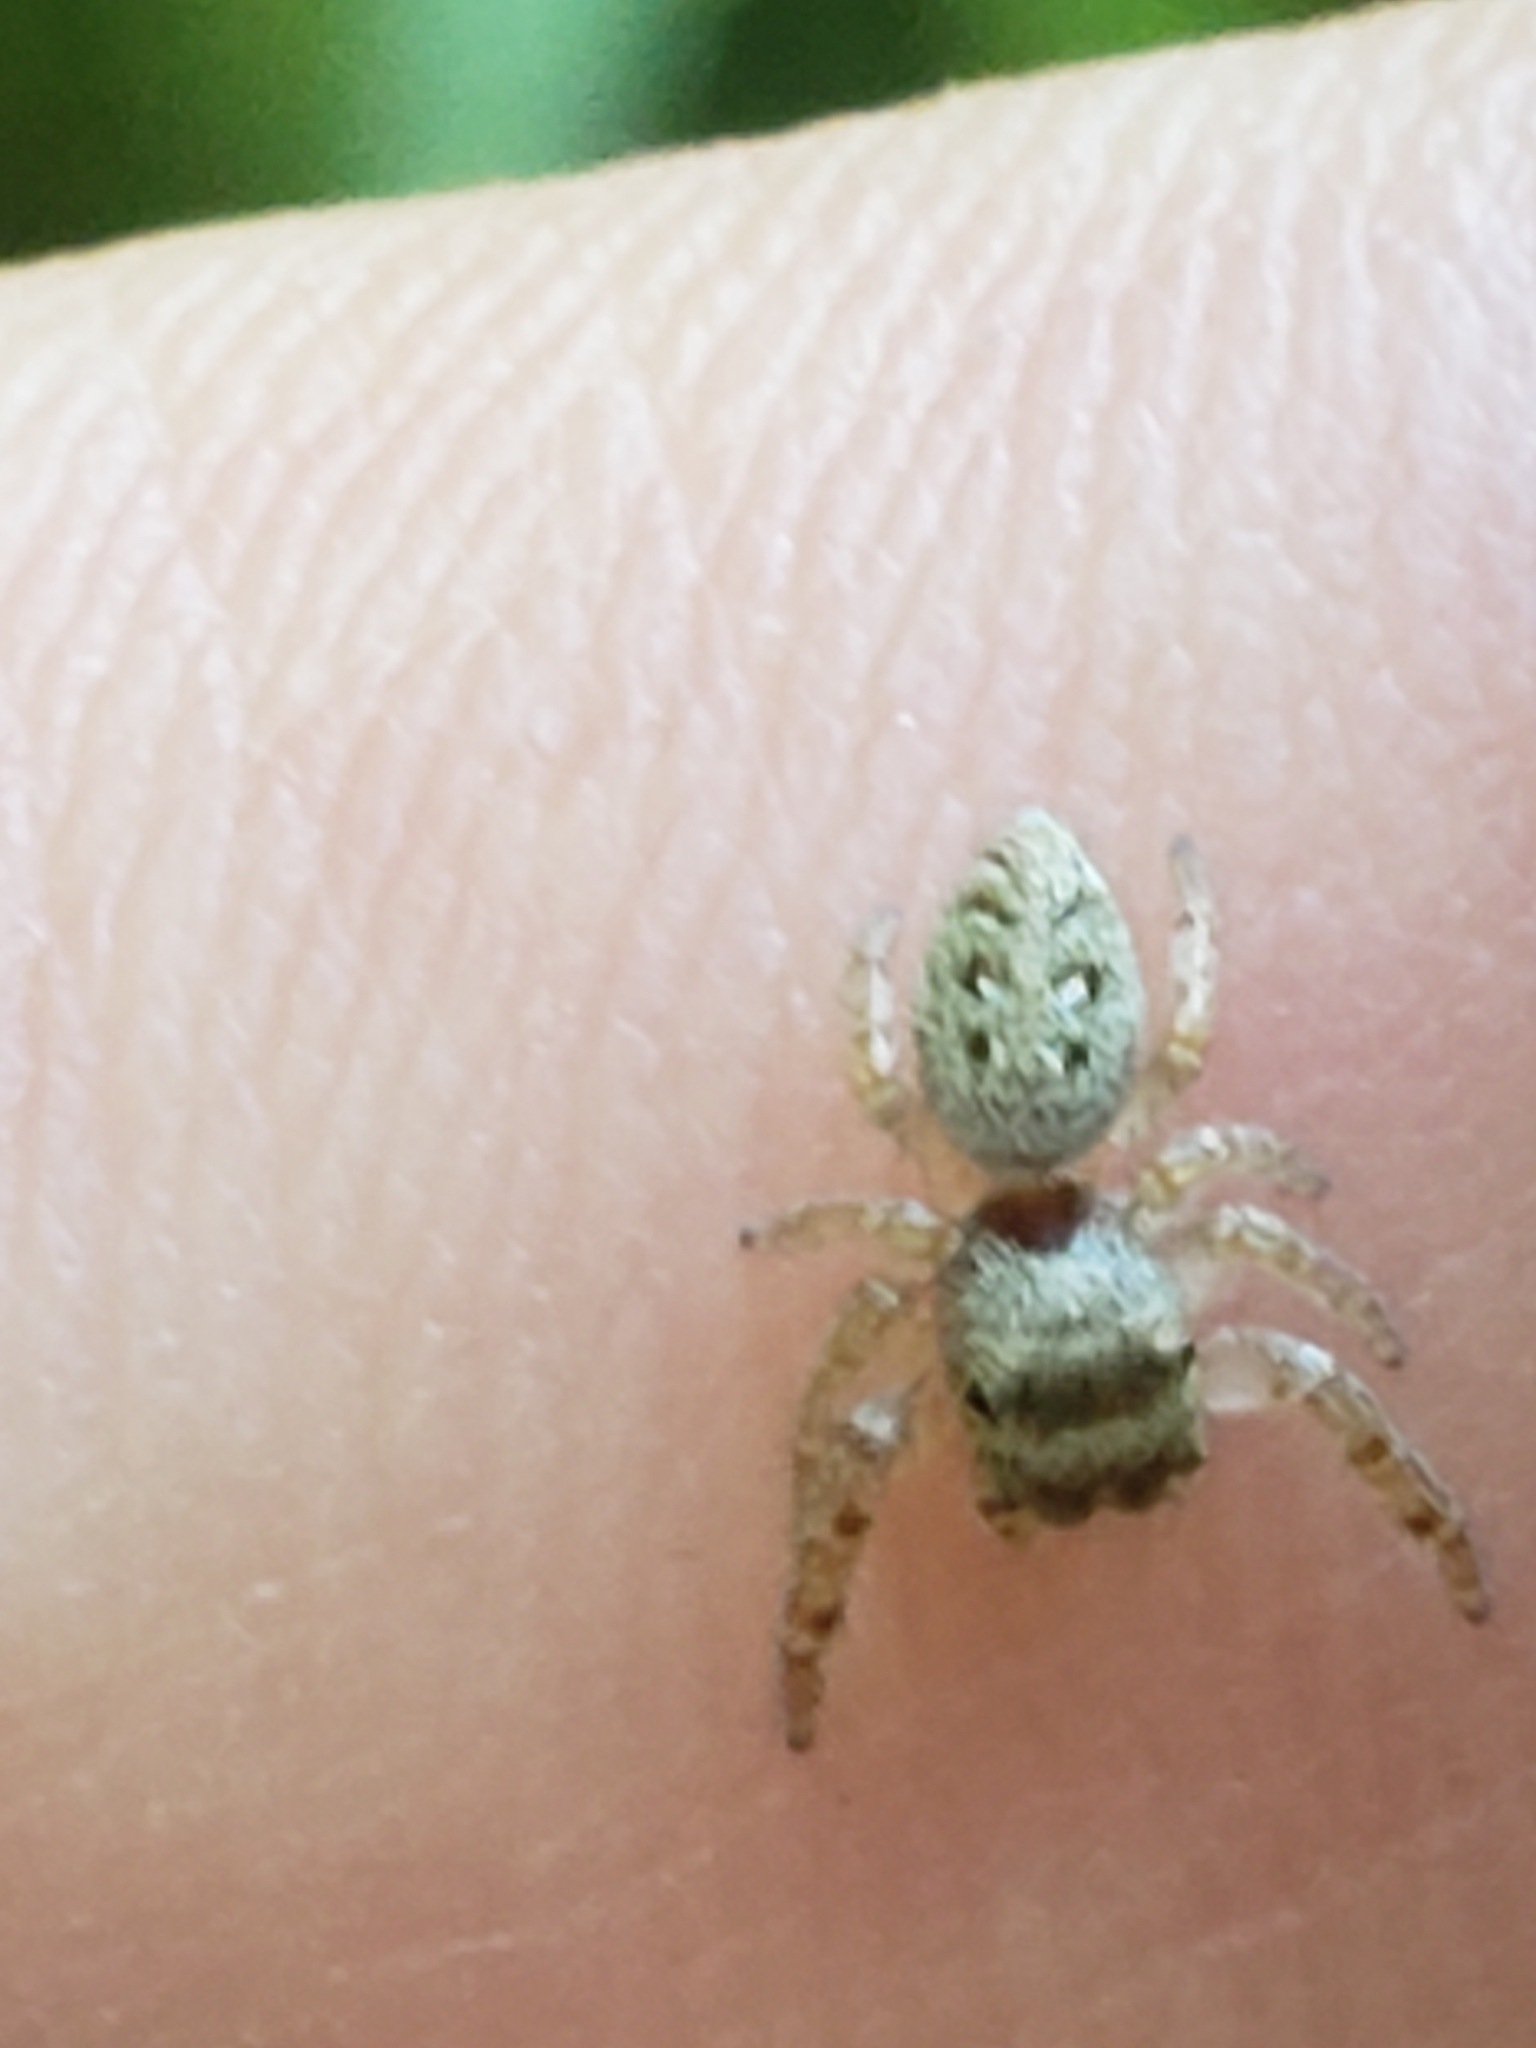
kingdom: Animalia
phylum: Arthropoda
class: Arachnida
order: Araneae
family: Salticidae
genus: Eris
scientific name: Eris militaris
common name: Bronze jumper
